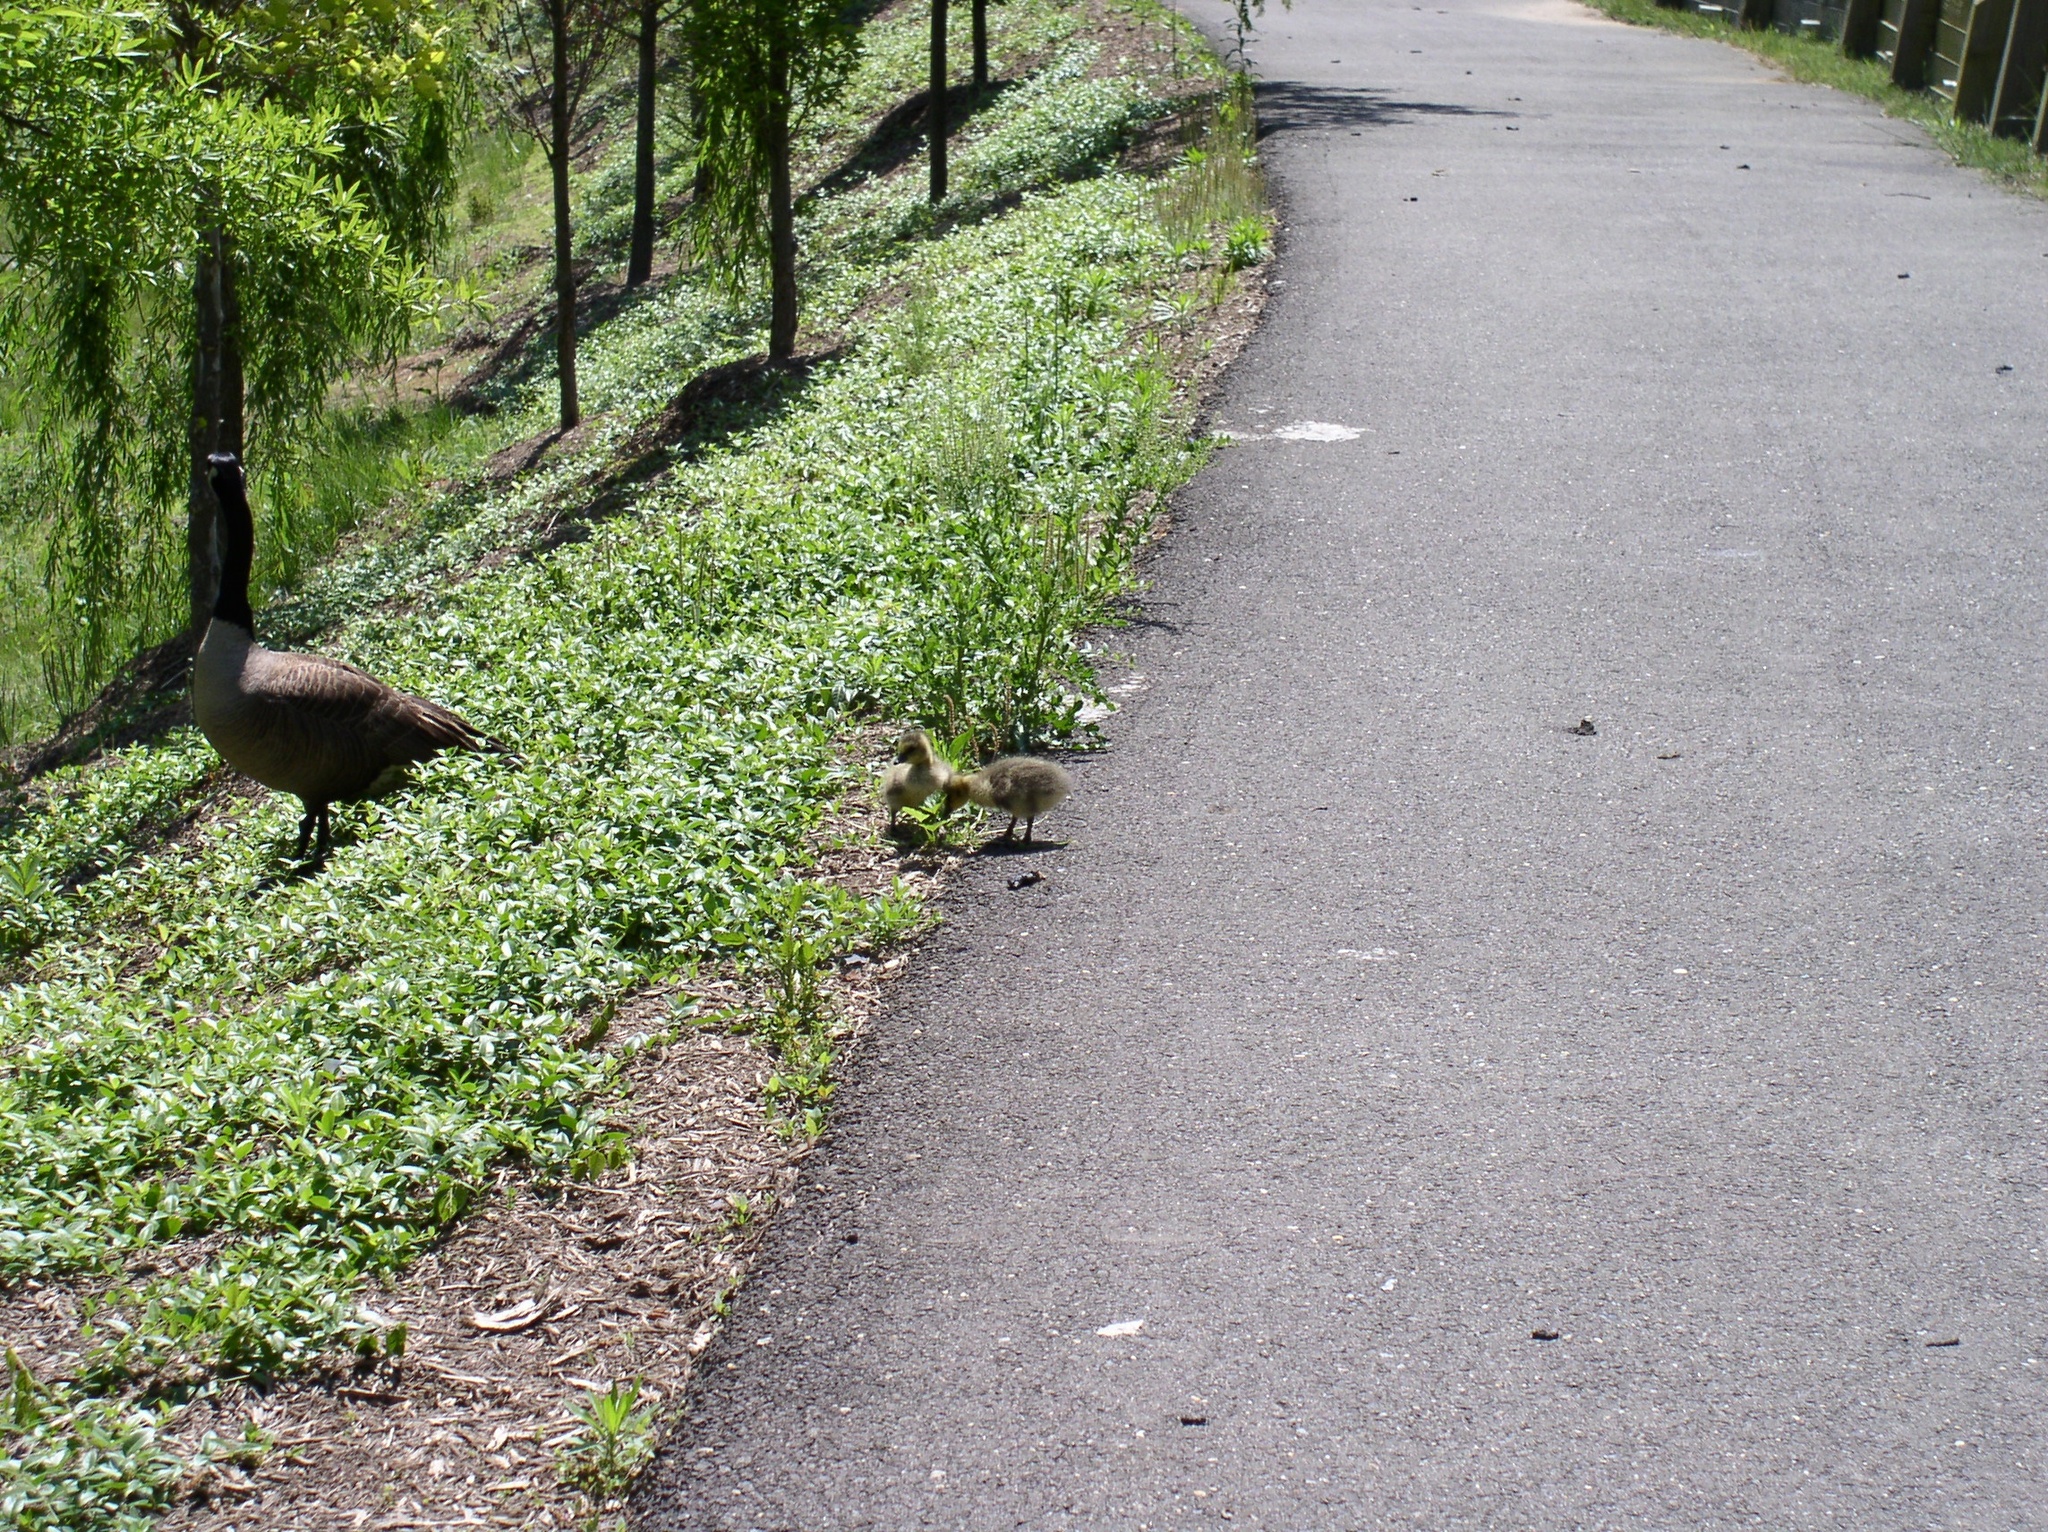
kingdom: Animalia
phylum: Chordata
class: Aves
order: Anseriformes
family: Anatidae
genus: Branta
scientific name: Branta canadensis
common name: Canada goose
